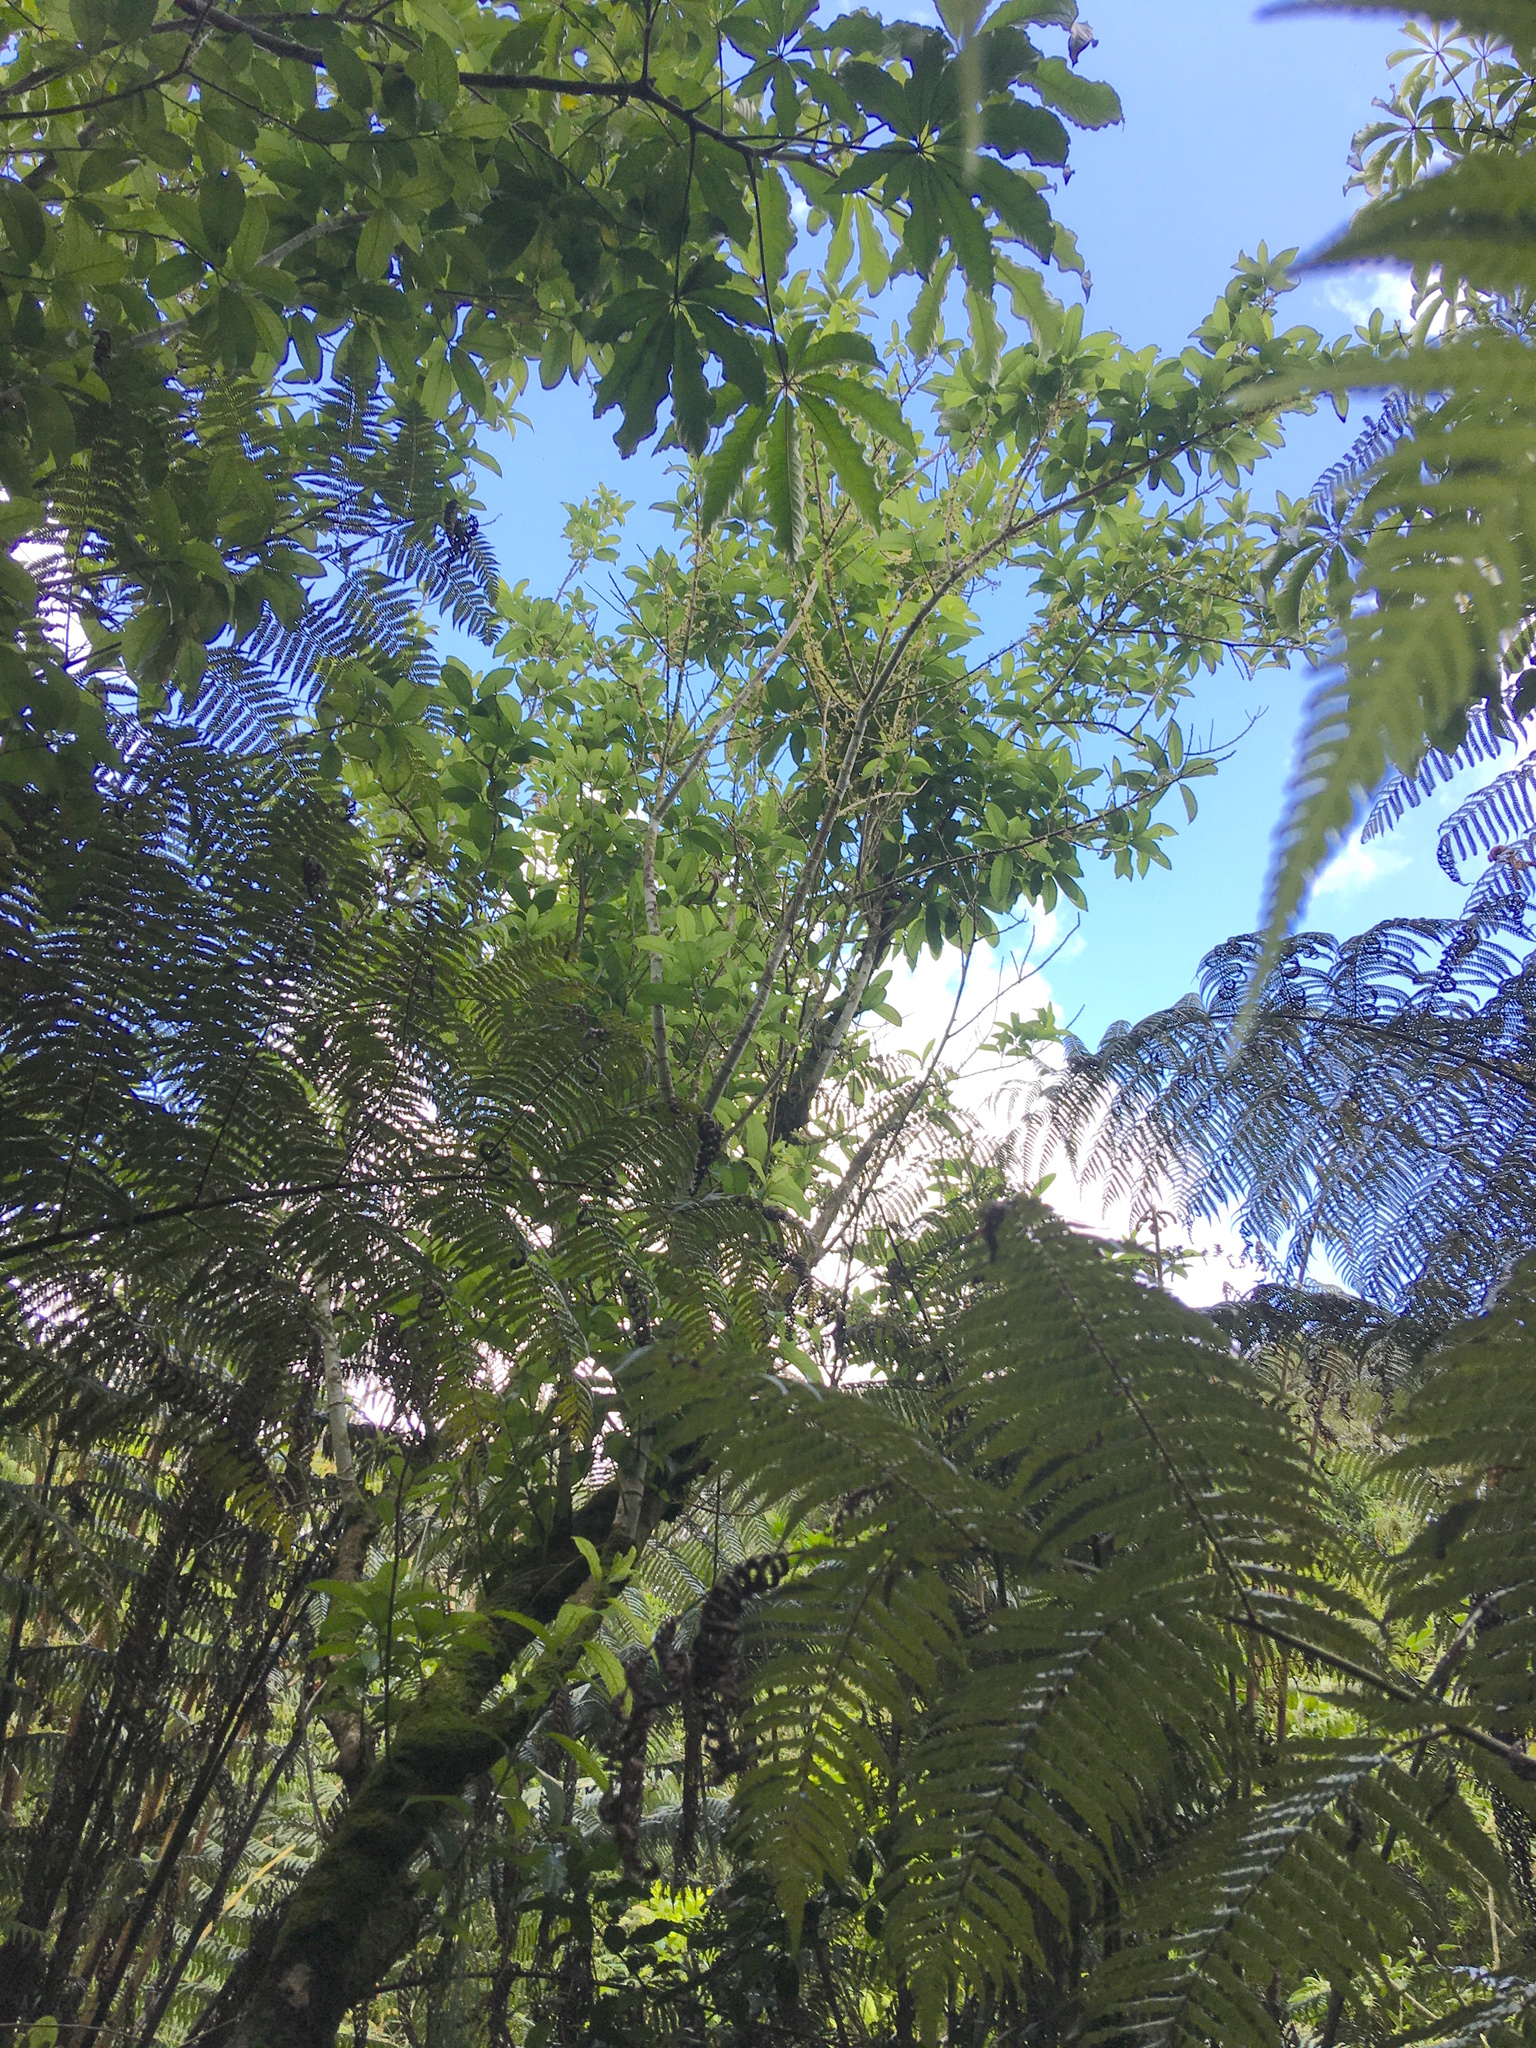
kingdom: Plantae
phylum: Tracheophyta
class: Magnoliopsida
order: Apiales
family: Araliaceae
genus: Schefflera
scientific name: Schefflera digitata
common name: Pate
